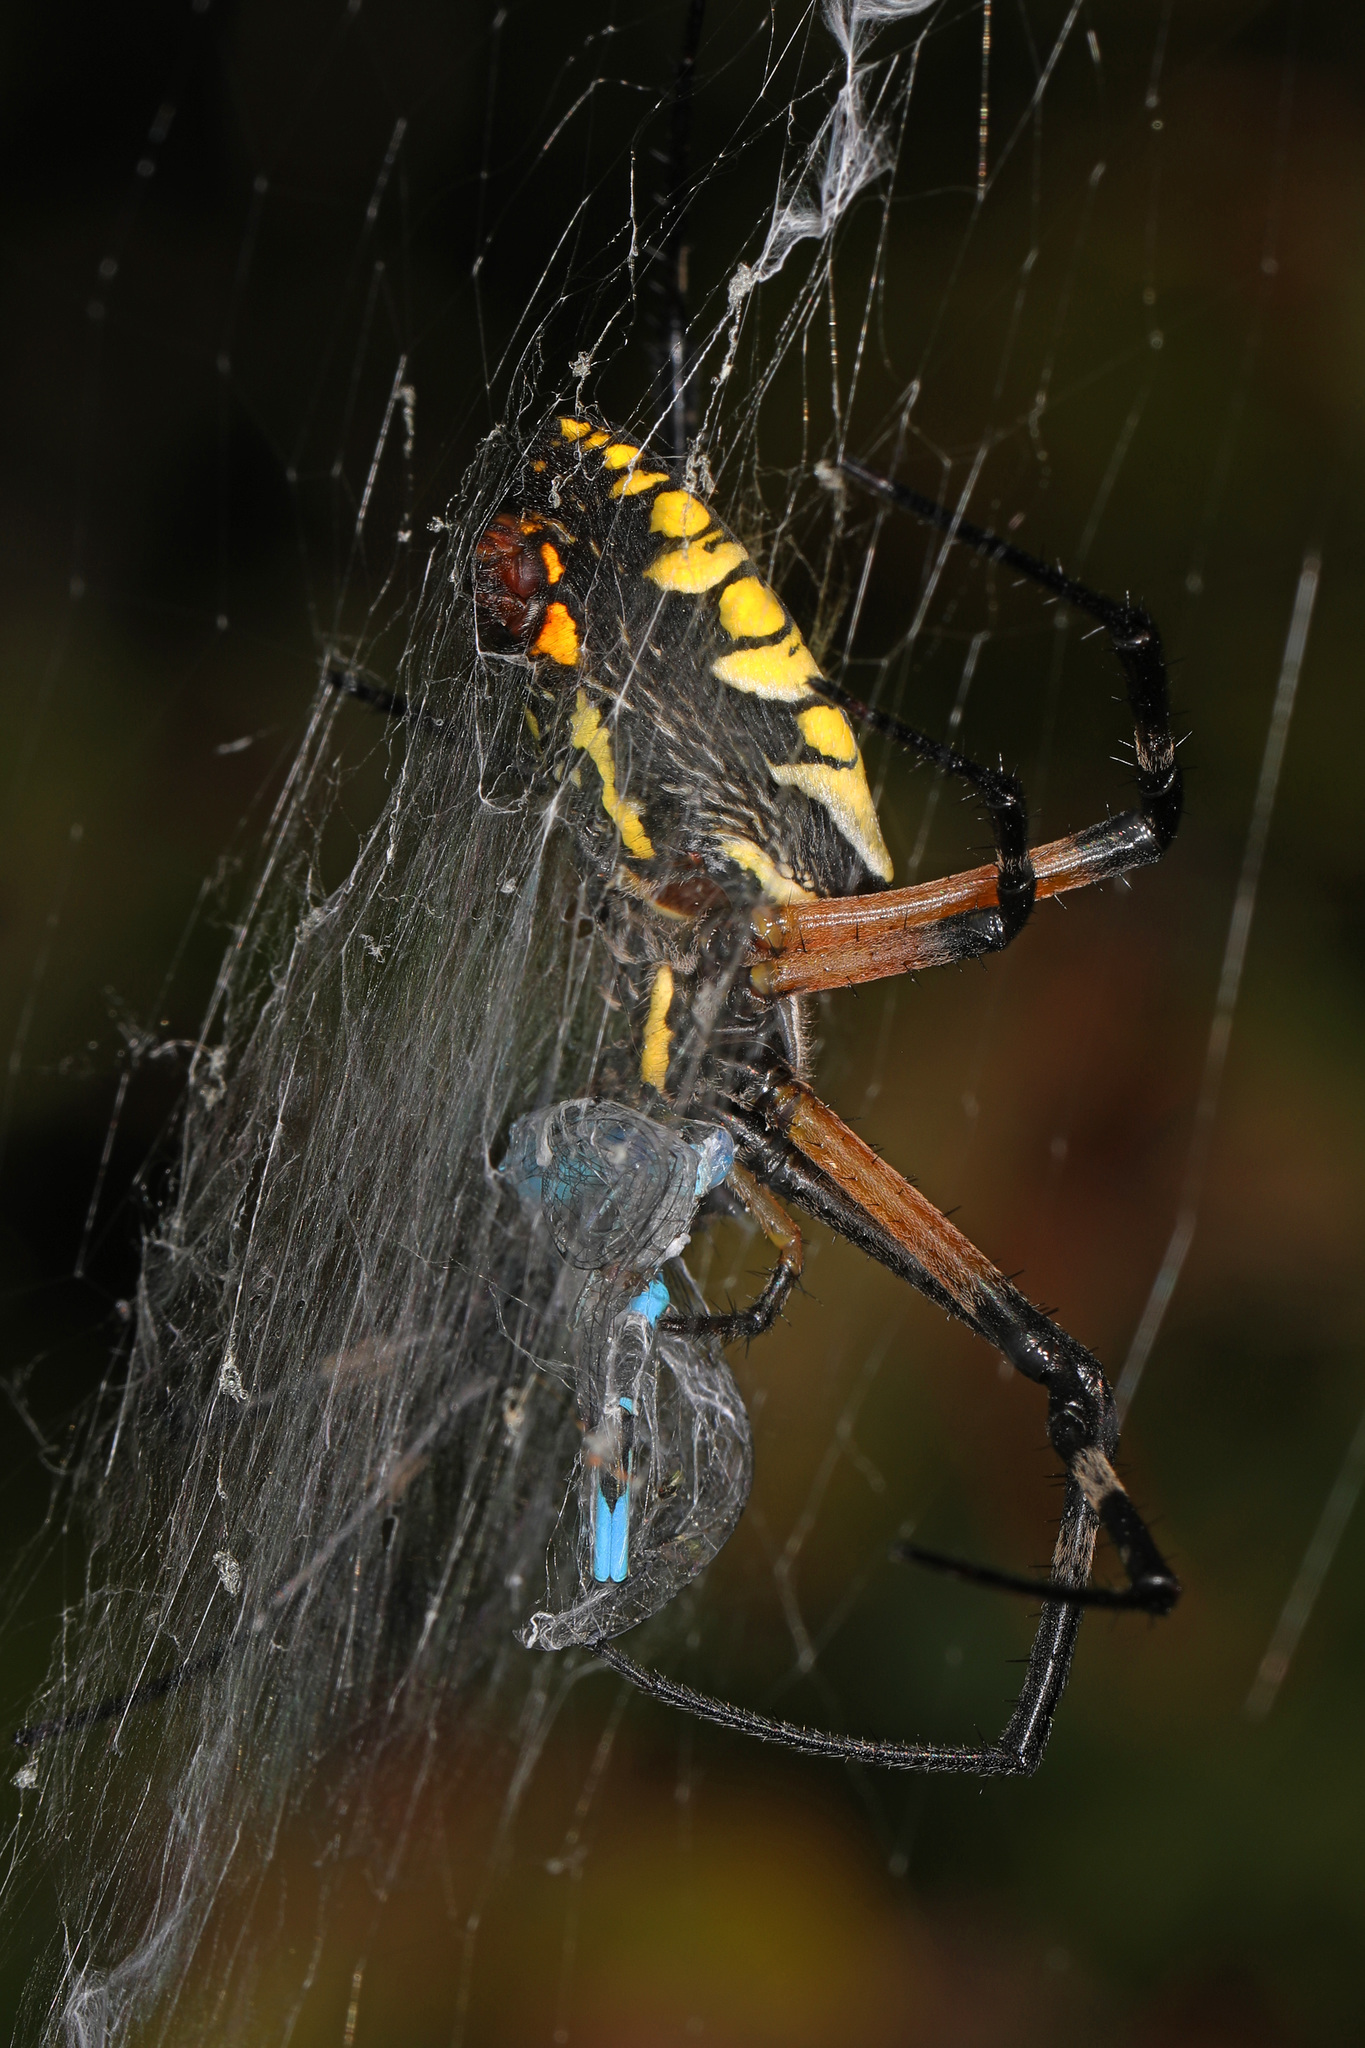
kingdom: Animalia
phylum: Arthropoda
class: Arachnida
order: Araneae
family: Araneidae
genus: Argiope
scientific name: Argiope aurantia
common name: Orb weavers
